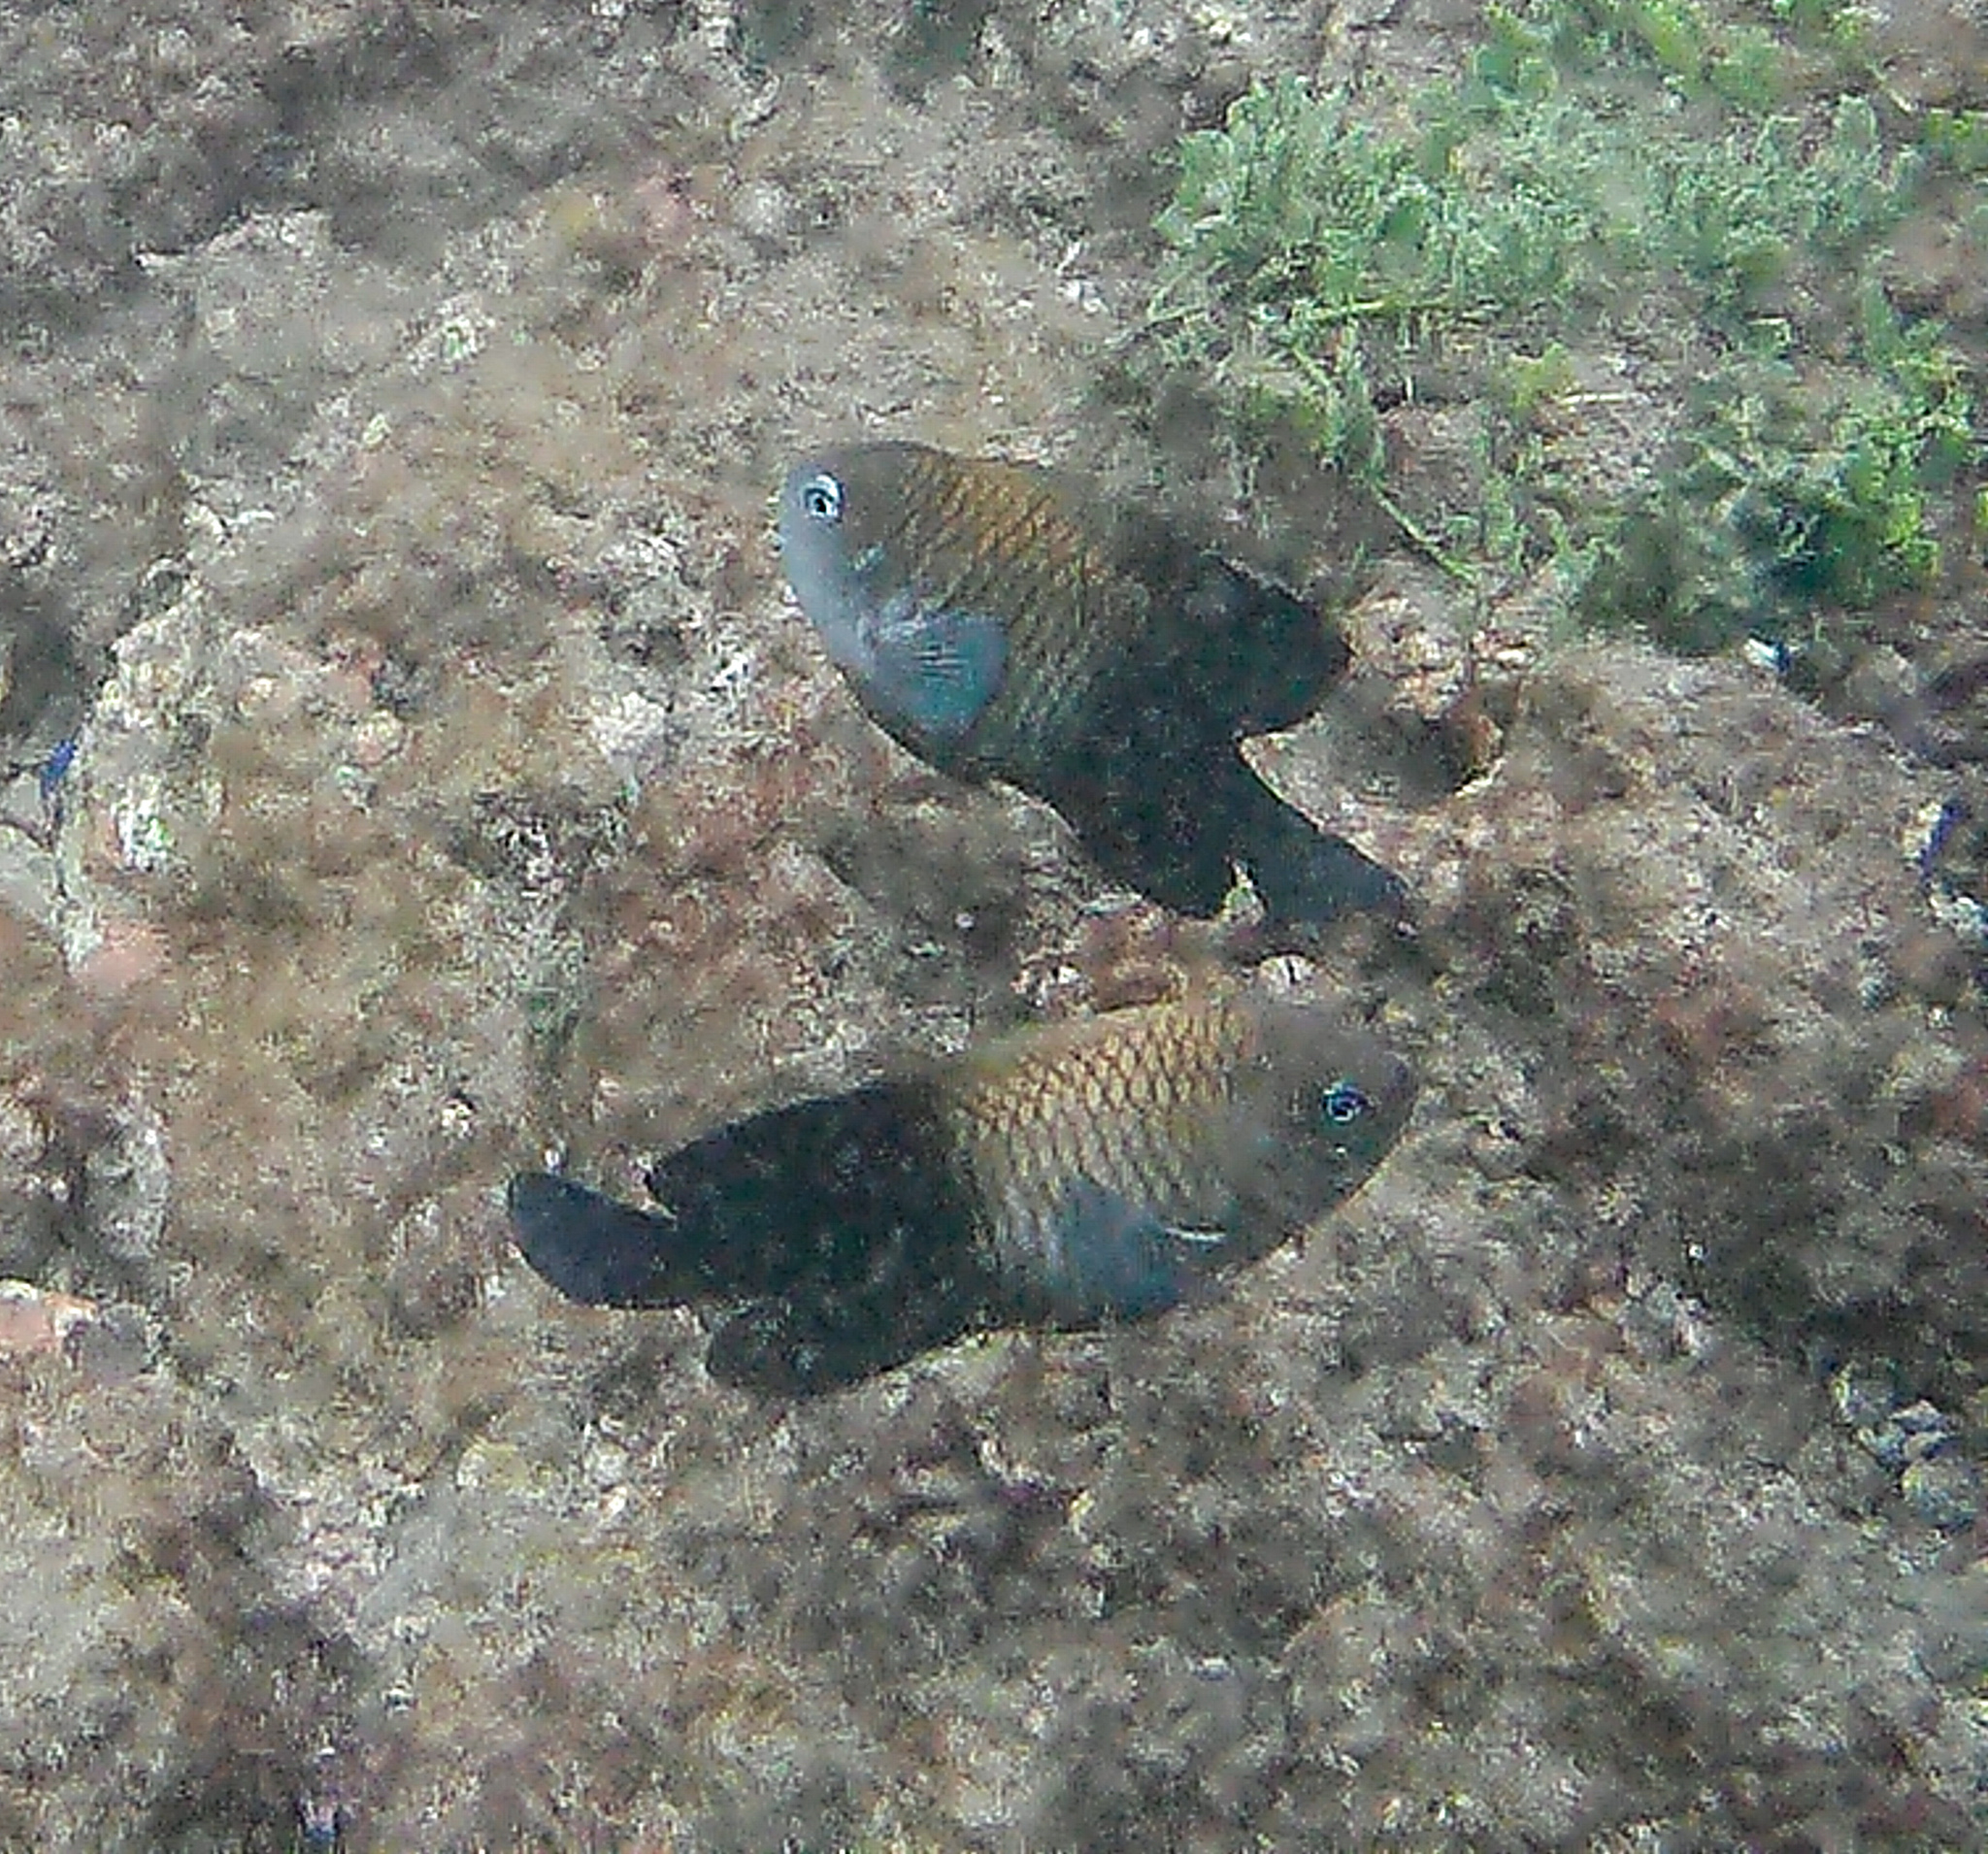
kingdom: Animalia
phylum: Chordata
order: Perciformes
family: Pomacentridae
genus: Stegastes
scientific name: Stegastes acapulcoensis
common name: Acapulco damselfish
